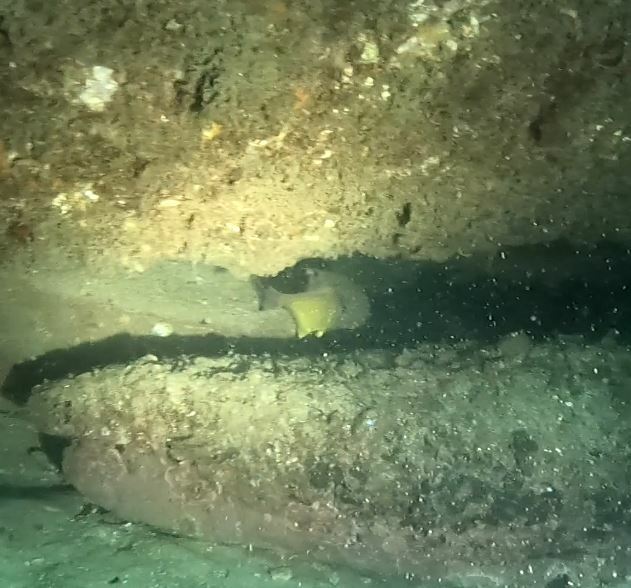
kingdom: Animalia
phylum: Chordata
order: Perciformes
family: Pempheridae
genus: Pempheris
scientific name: Pempheris affinis
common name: Black-tipped bullseye
